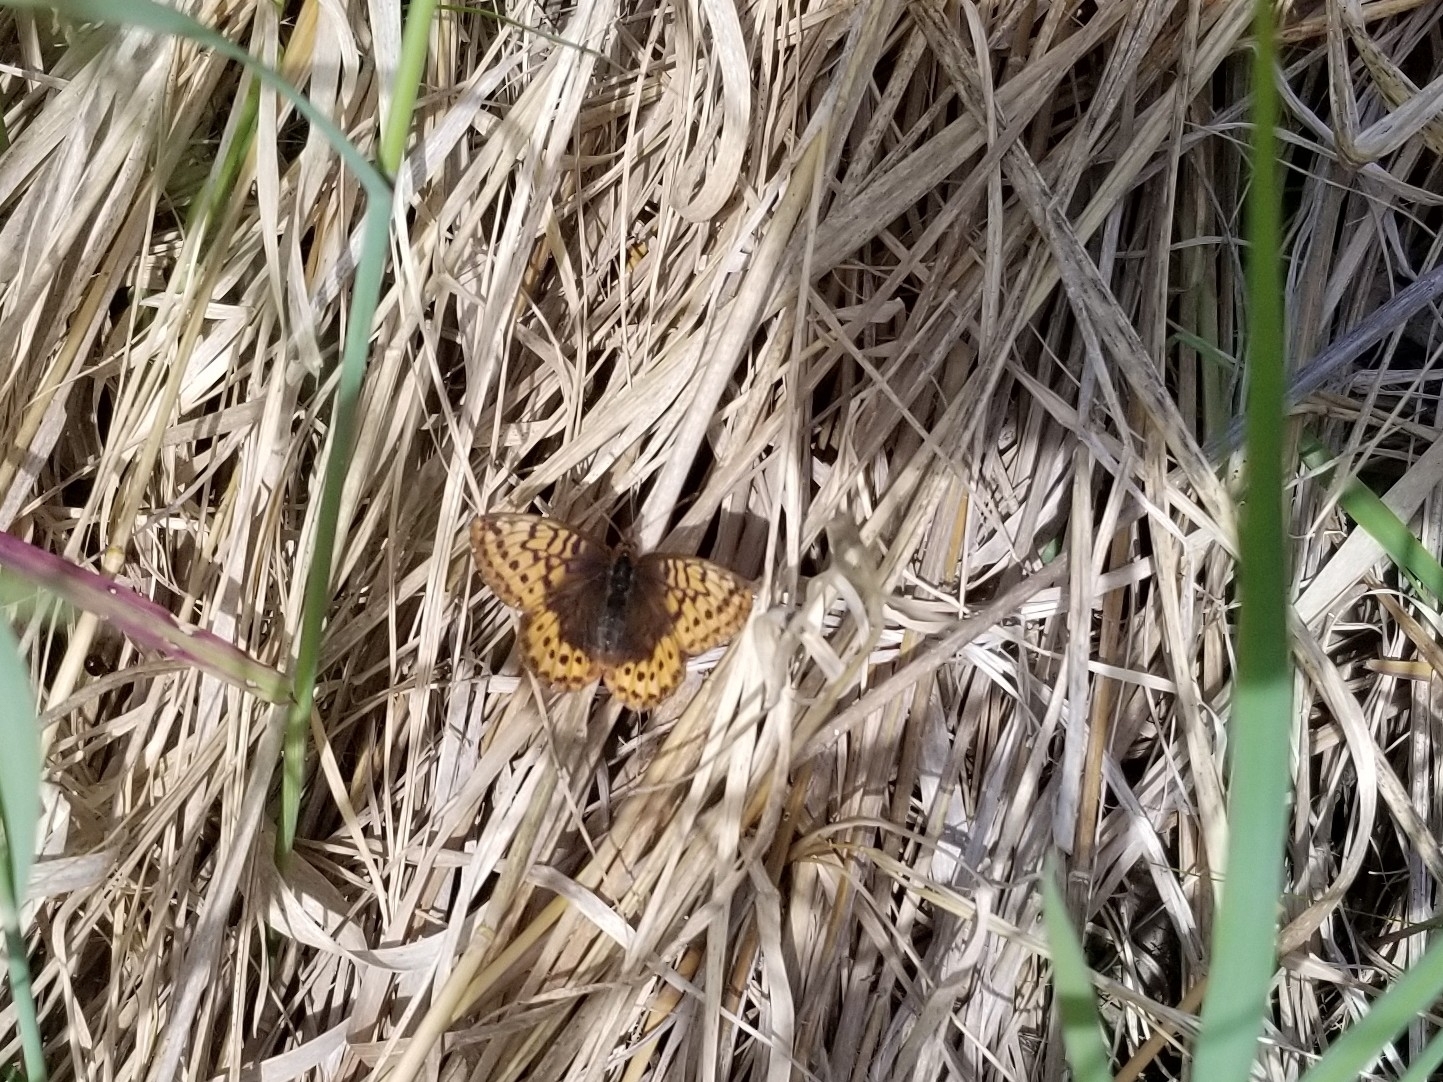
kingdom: Animalia
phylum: Arthropoda
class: Insecta
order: Lepidoptera
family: Nymphalidae
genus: Boloria
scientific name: Boloria frigga
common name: Frigga's fritillary
